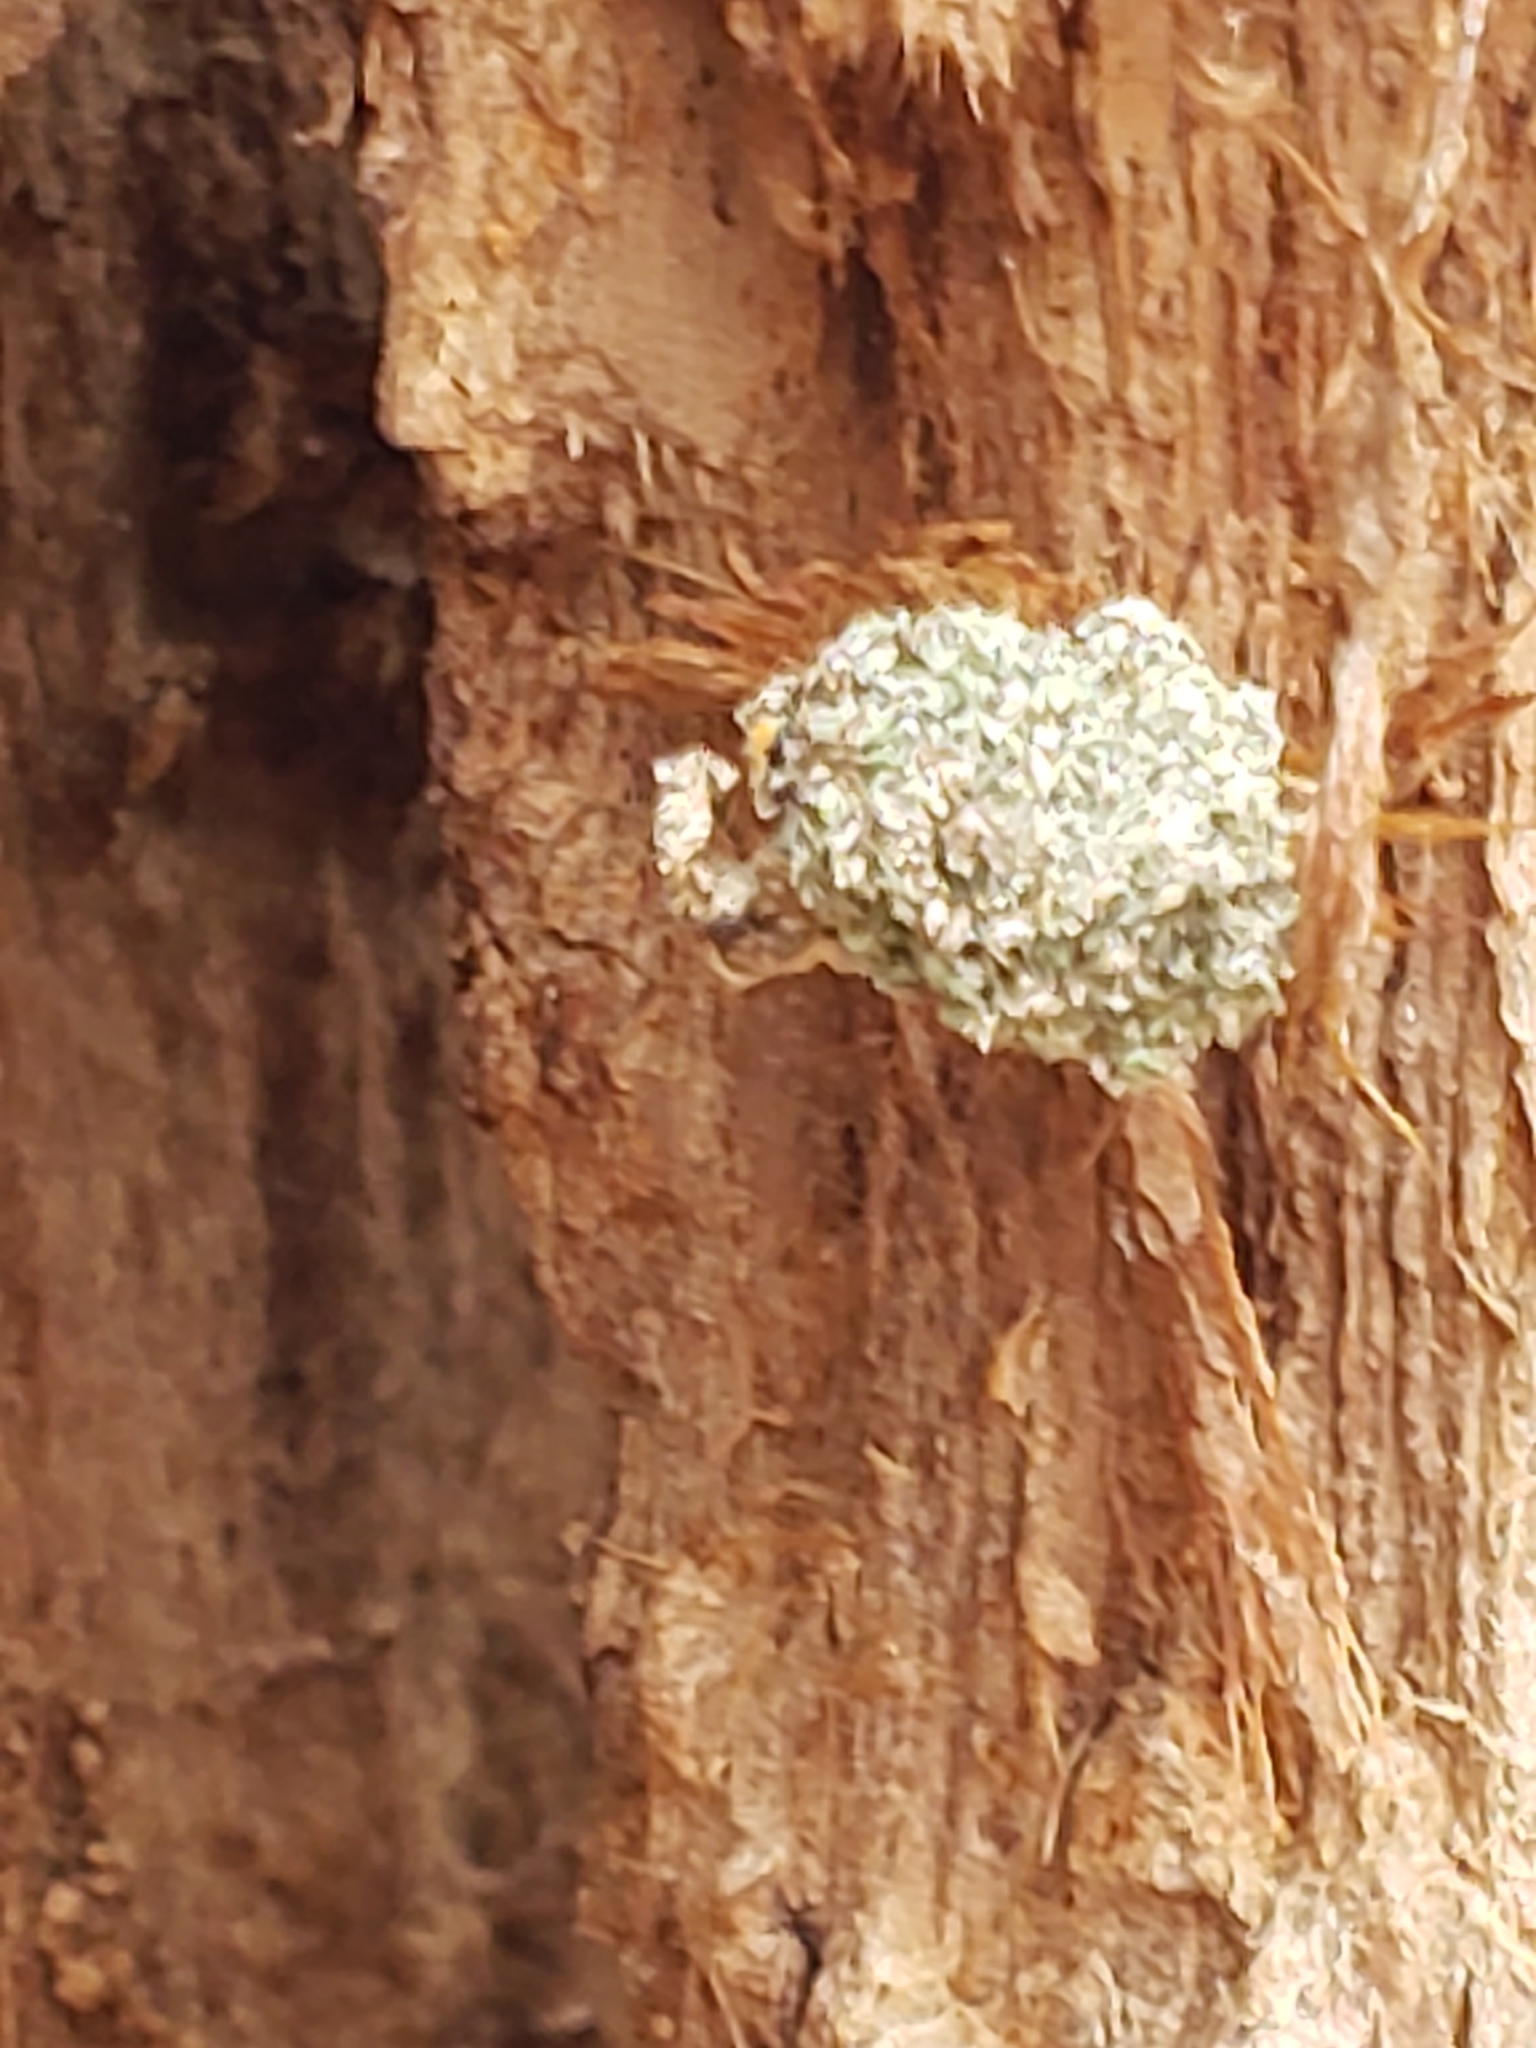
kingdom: Animalia
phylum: Arthropoda
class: Insecta
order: Neuroptera
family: Chrysopidae
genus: Leucochrysa
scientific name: Leucochrysa pavida
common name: Lichen-carrying green lacewing
